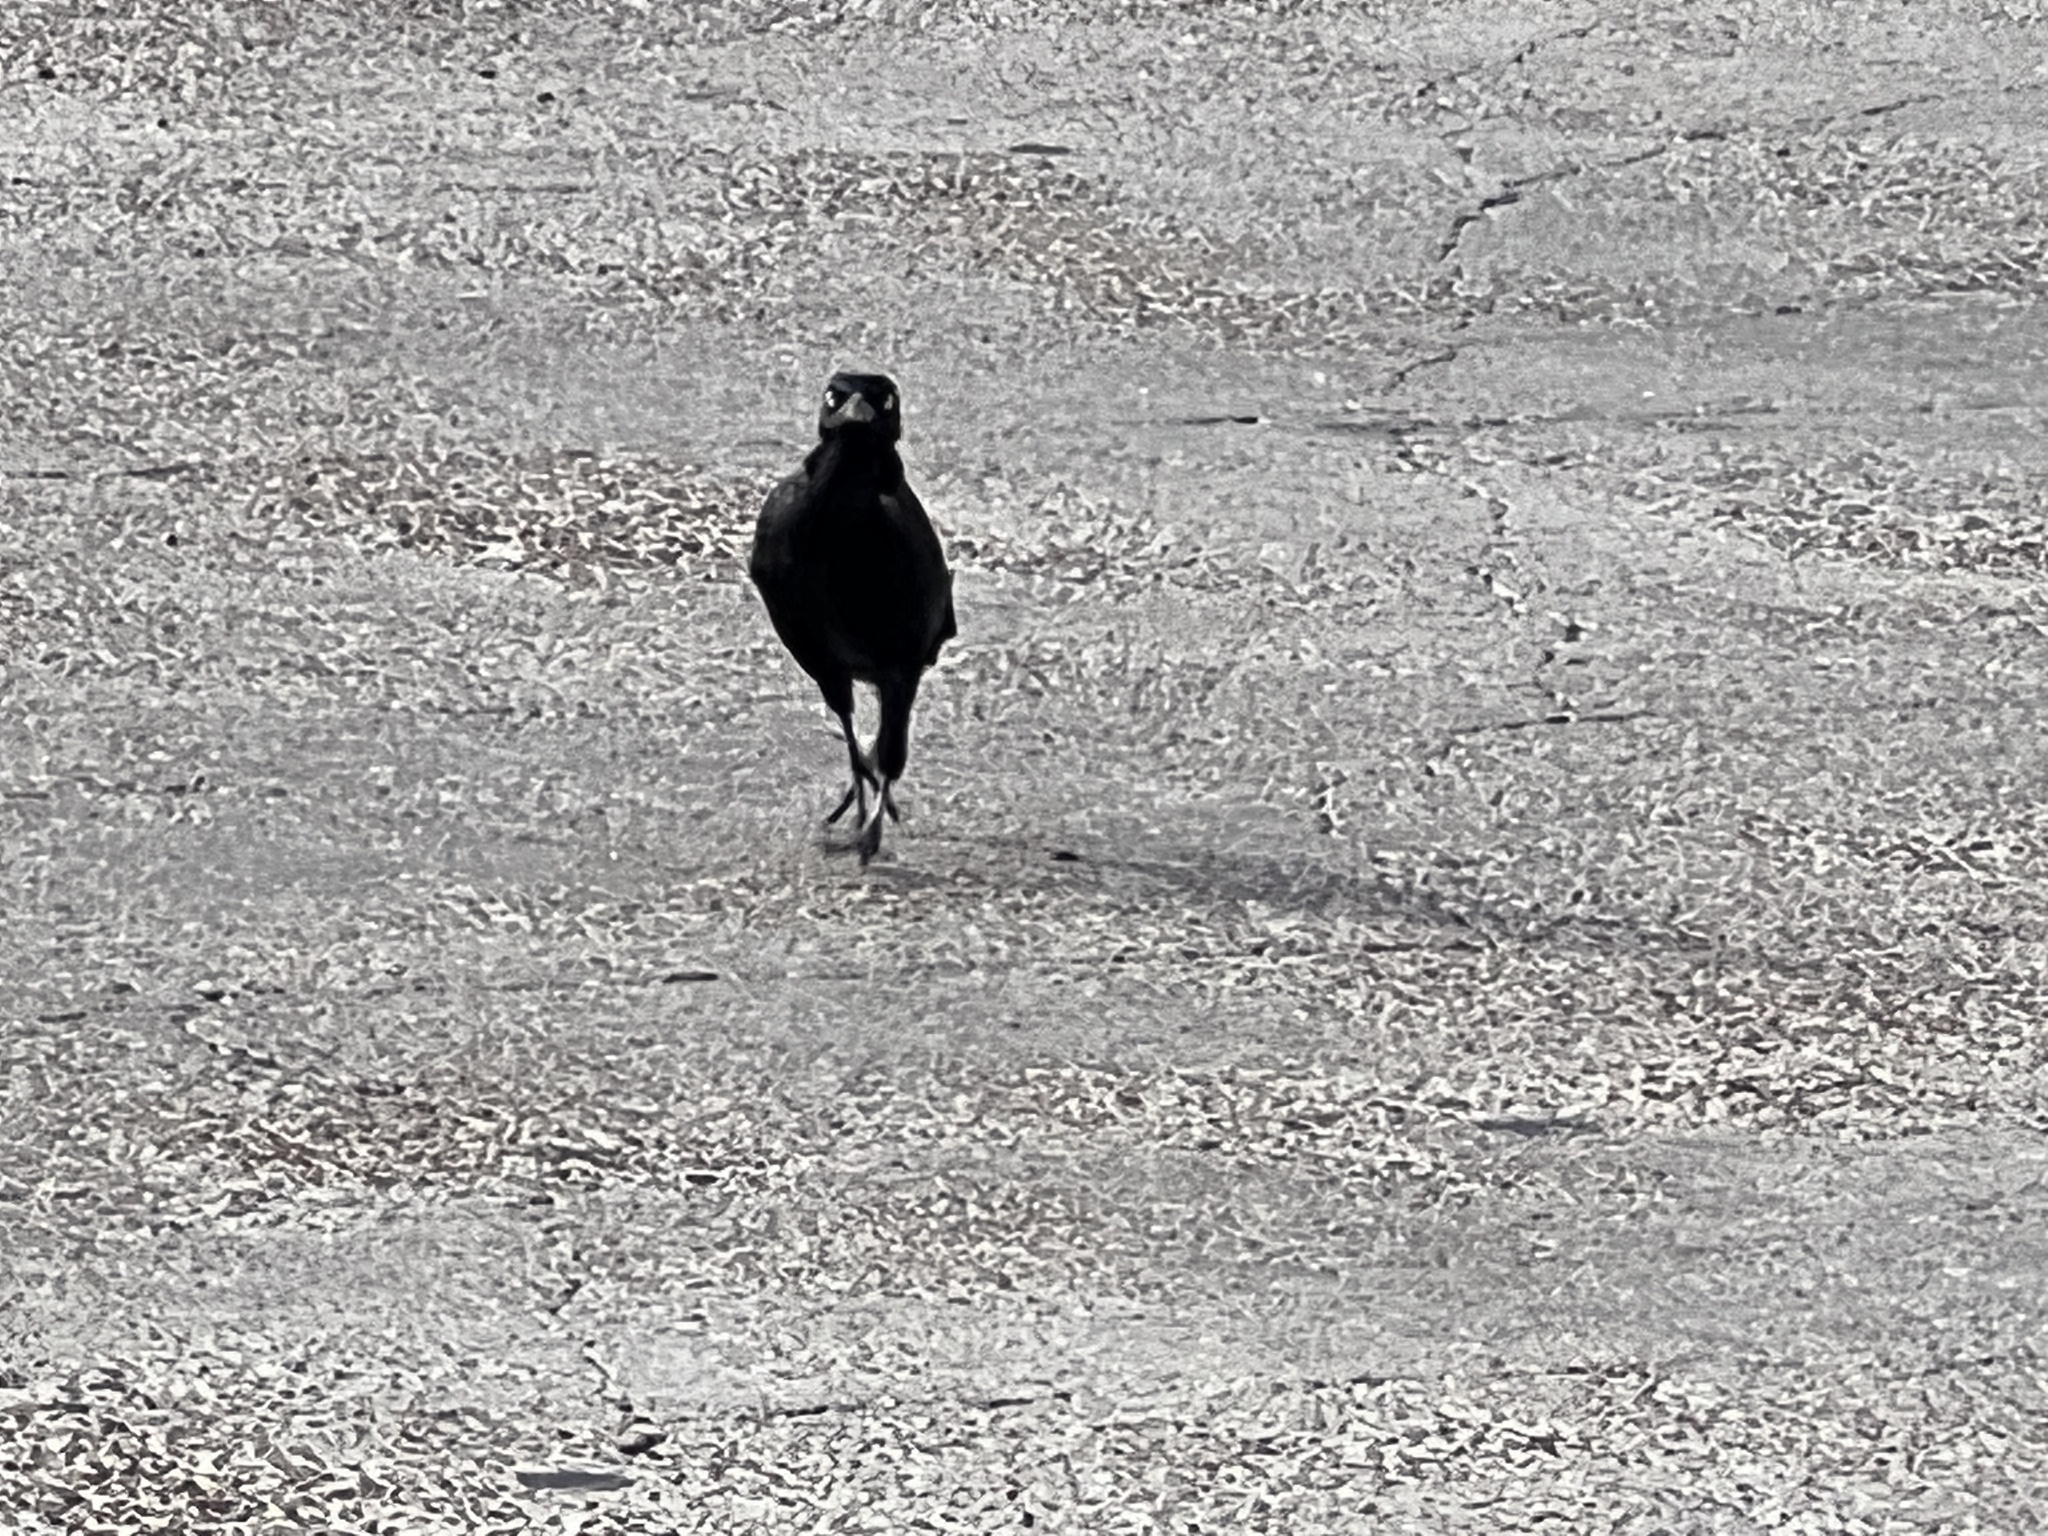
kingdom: Animalia
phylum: Chordata
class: Aves
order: Passeriformes
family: Icteridae
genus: Quiscalus
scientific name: Quiscalus mexicanus
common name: Great-tailed grackle
